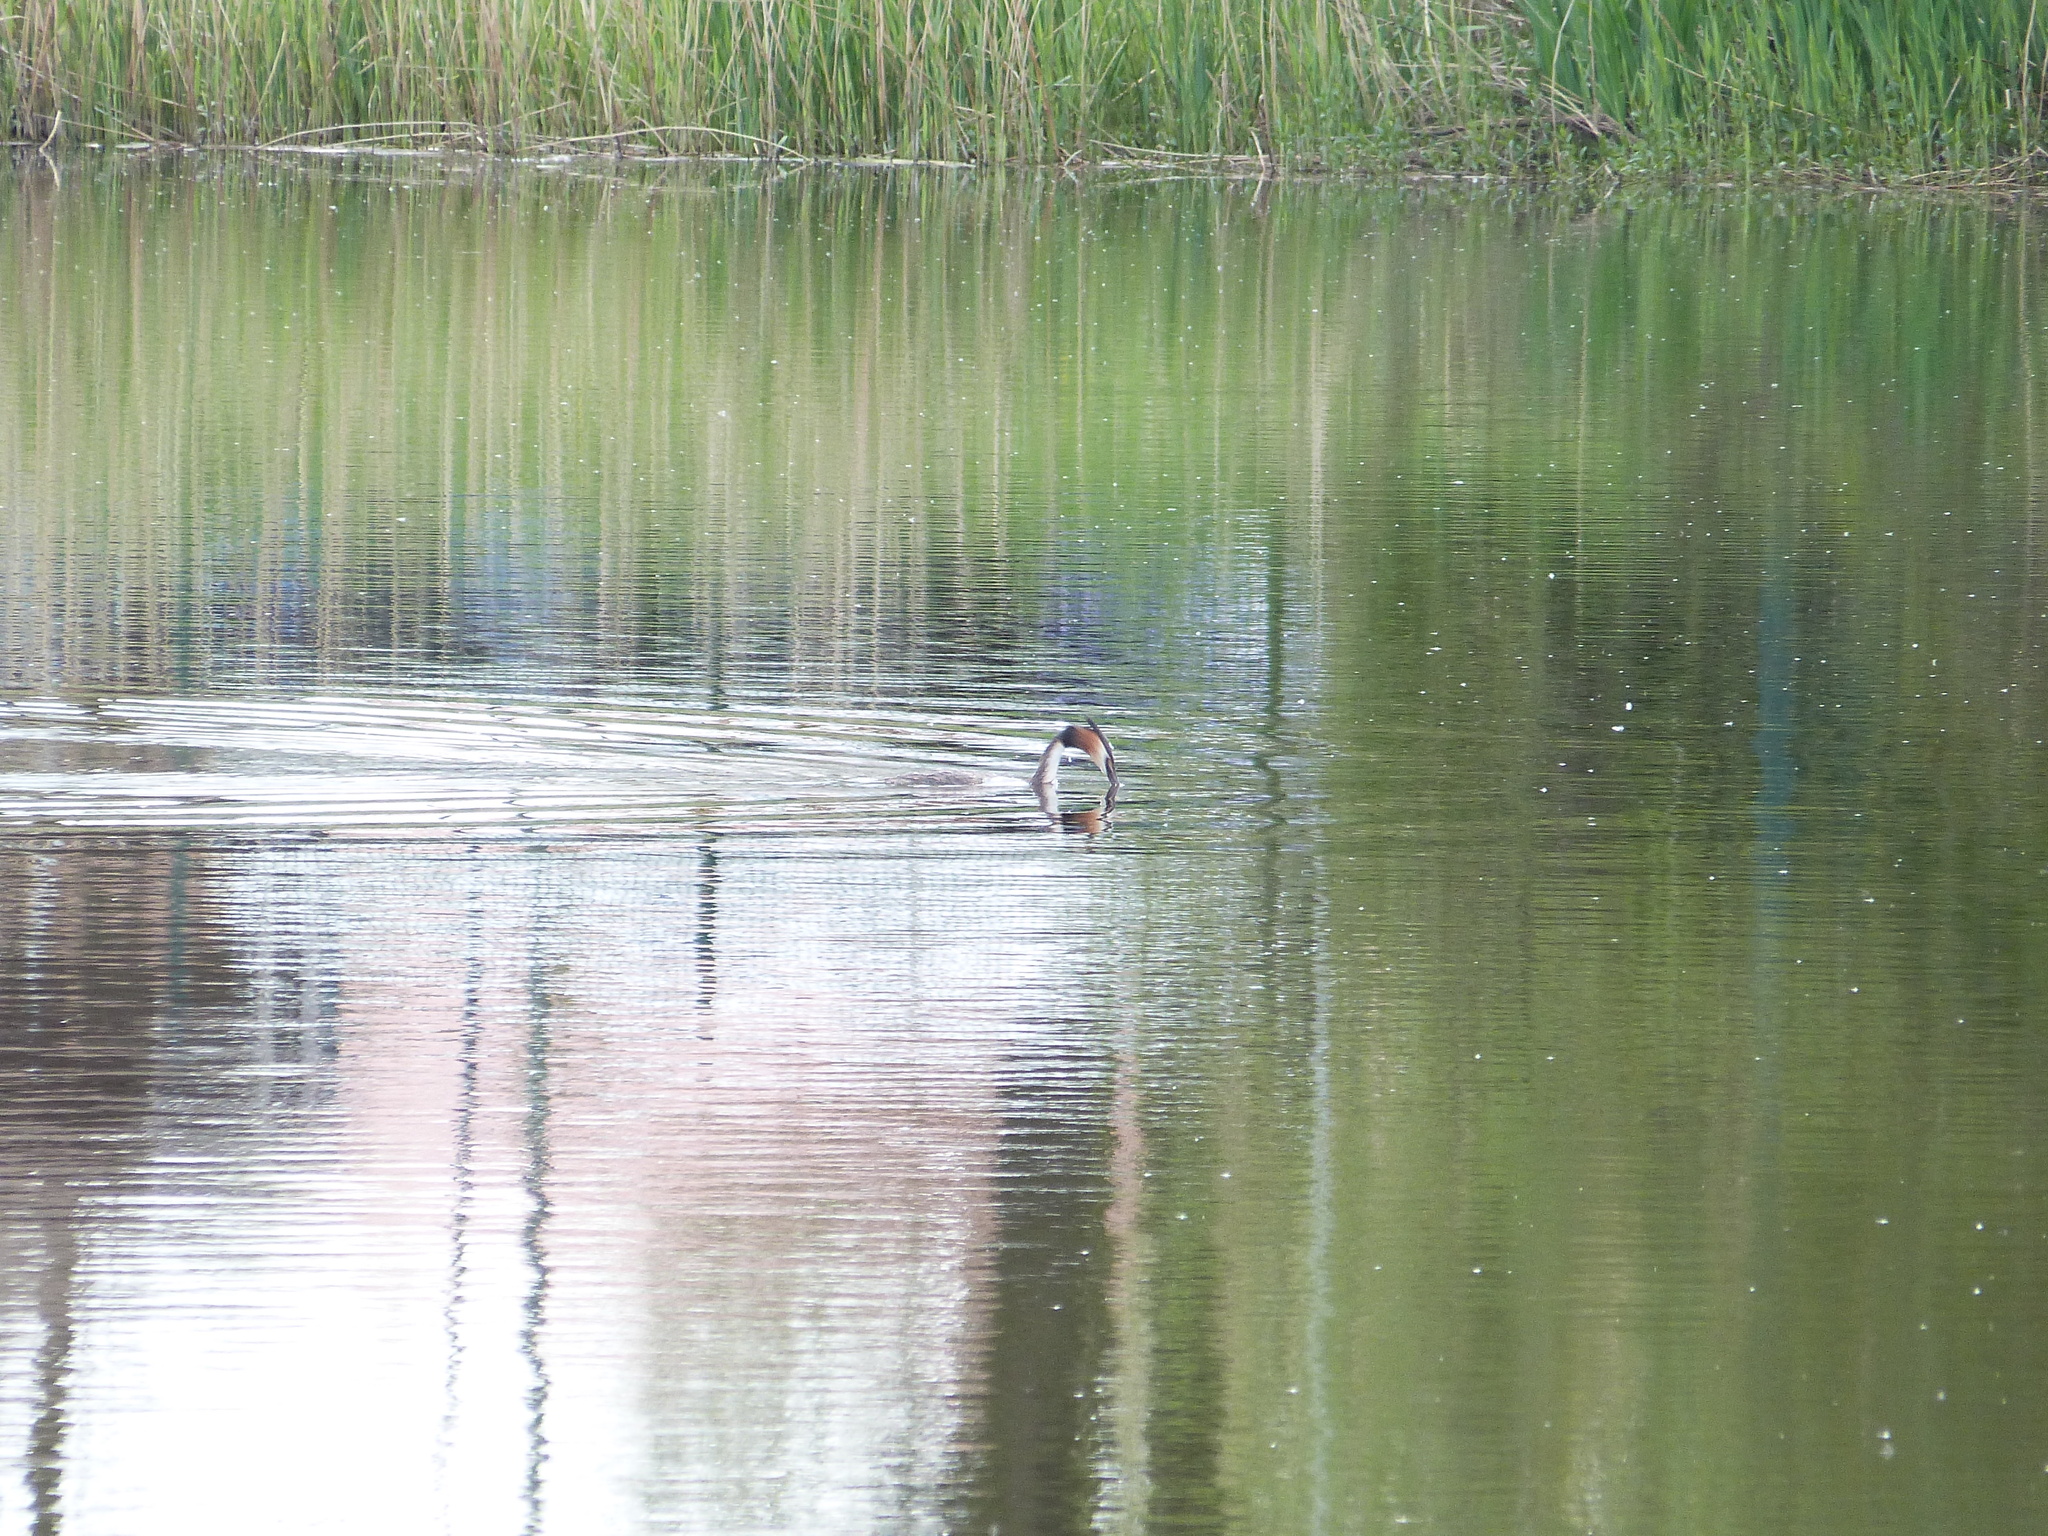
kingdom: Animalia
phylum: Chordata
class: Aves
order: Podicipediformes
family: Podicipedidae
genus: Podiceps
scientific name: Podiceps cristatus
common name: Great crested grebe
